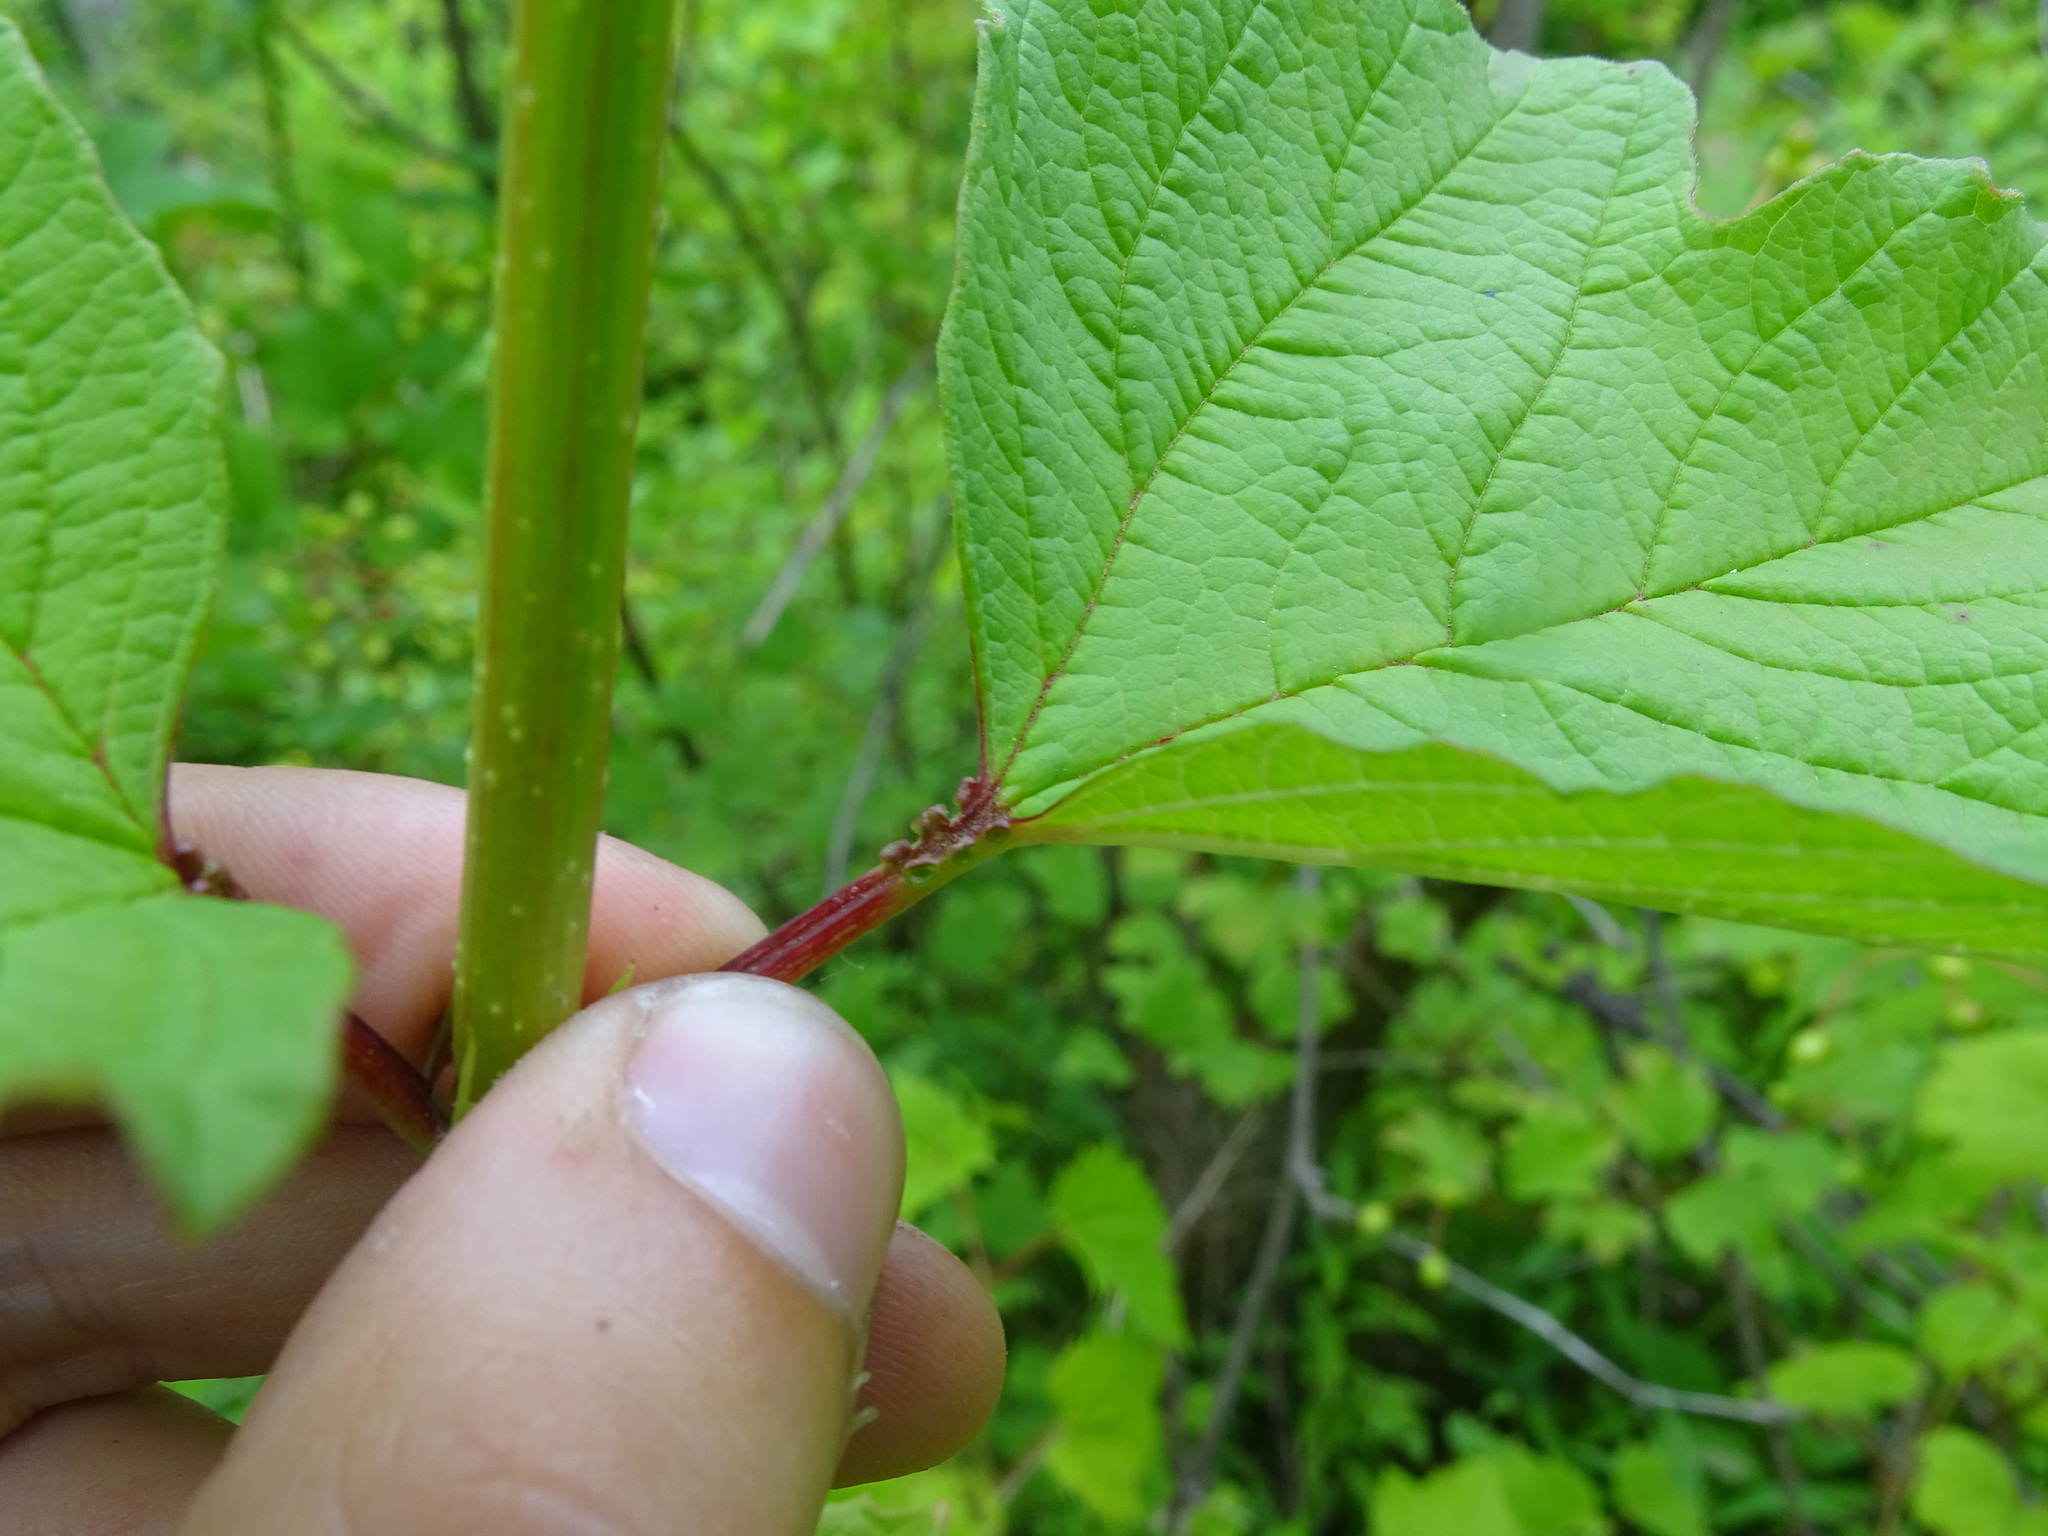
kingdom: Plantae
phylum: Tracheophyta
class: Magnoliopsida
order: Dipsacales
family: Viburnaceae
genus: Viburnum
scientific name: Viburnum opulus
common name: Guelder-rose
